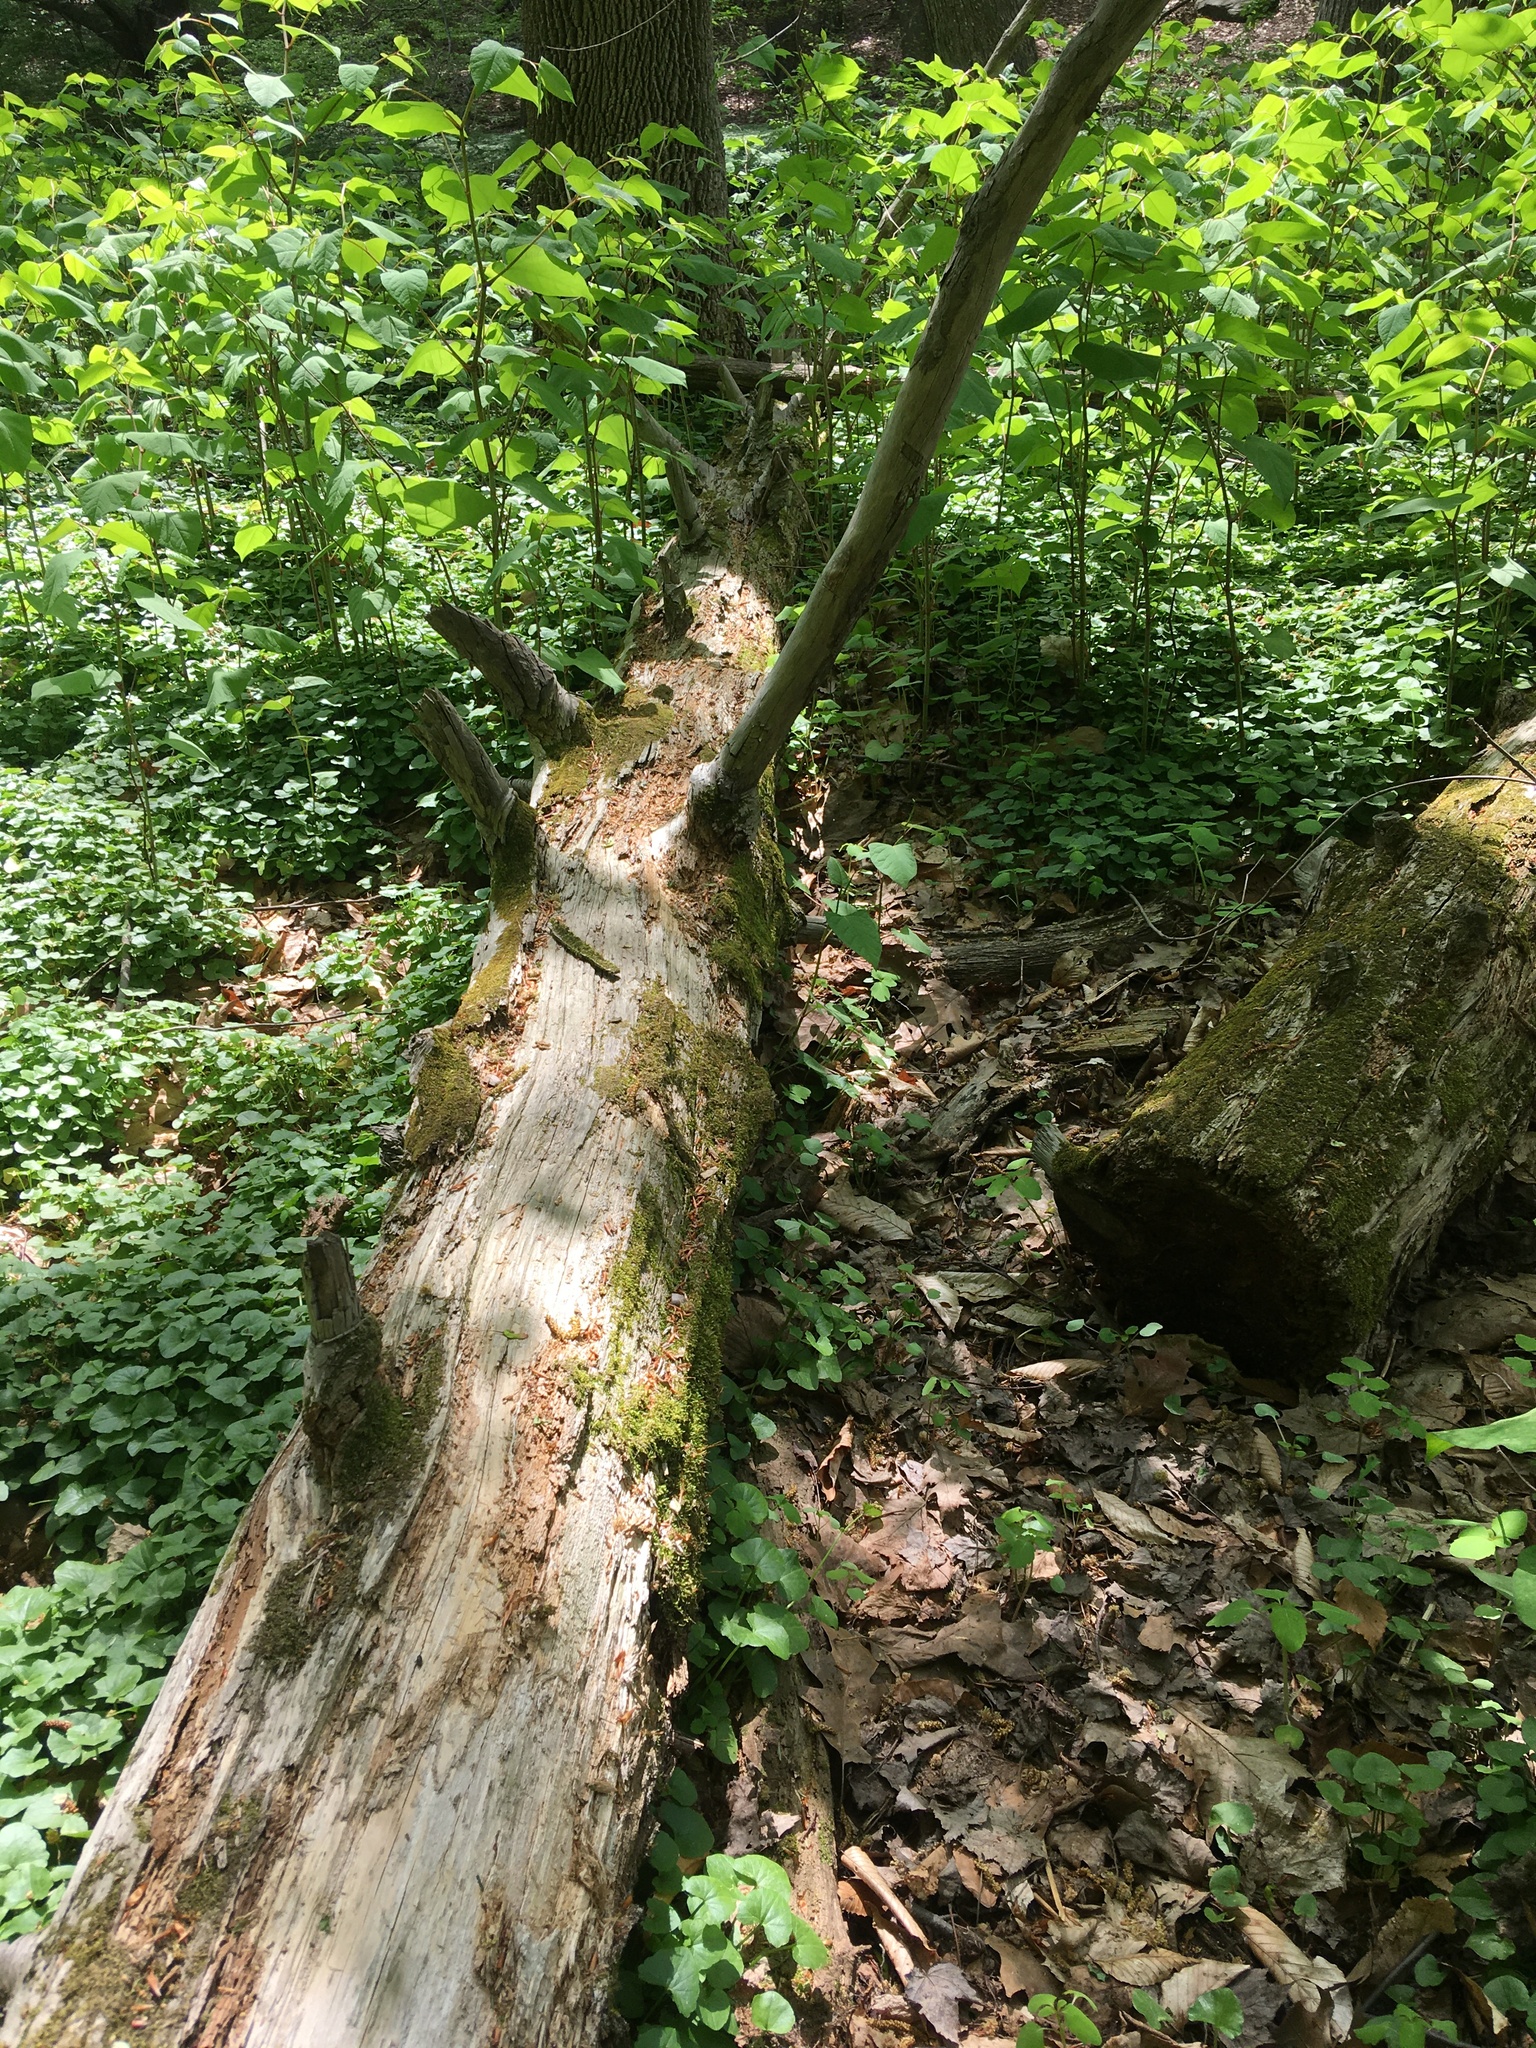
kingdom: Plantae
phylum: Tracheophyta
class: Pinopsida
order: Pinales
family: Pinaceae
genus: Tsuga
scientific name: Tsuga canadensis
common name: Eastern hemlock
